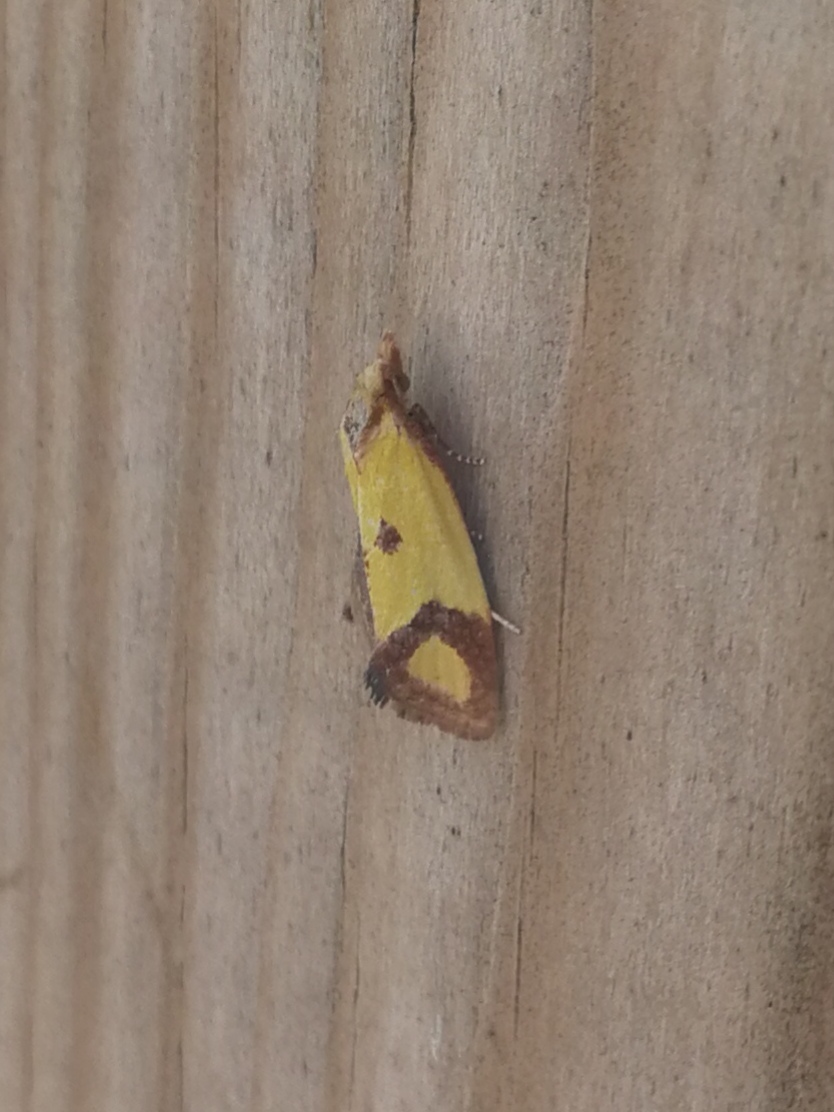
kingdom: Animalia
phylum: Arthropoda
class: Insecta
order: Lepidoptera
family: Tortricidae
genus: Agapeta
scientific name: Agapeta zoegana
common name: Sulfur knapweed root moth
